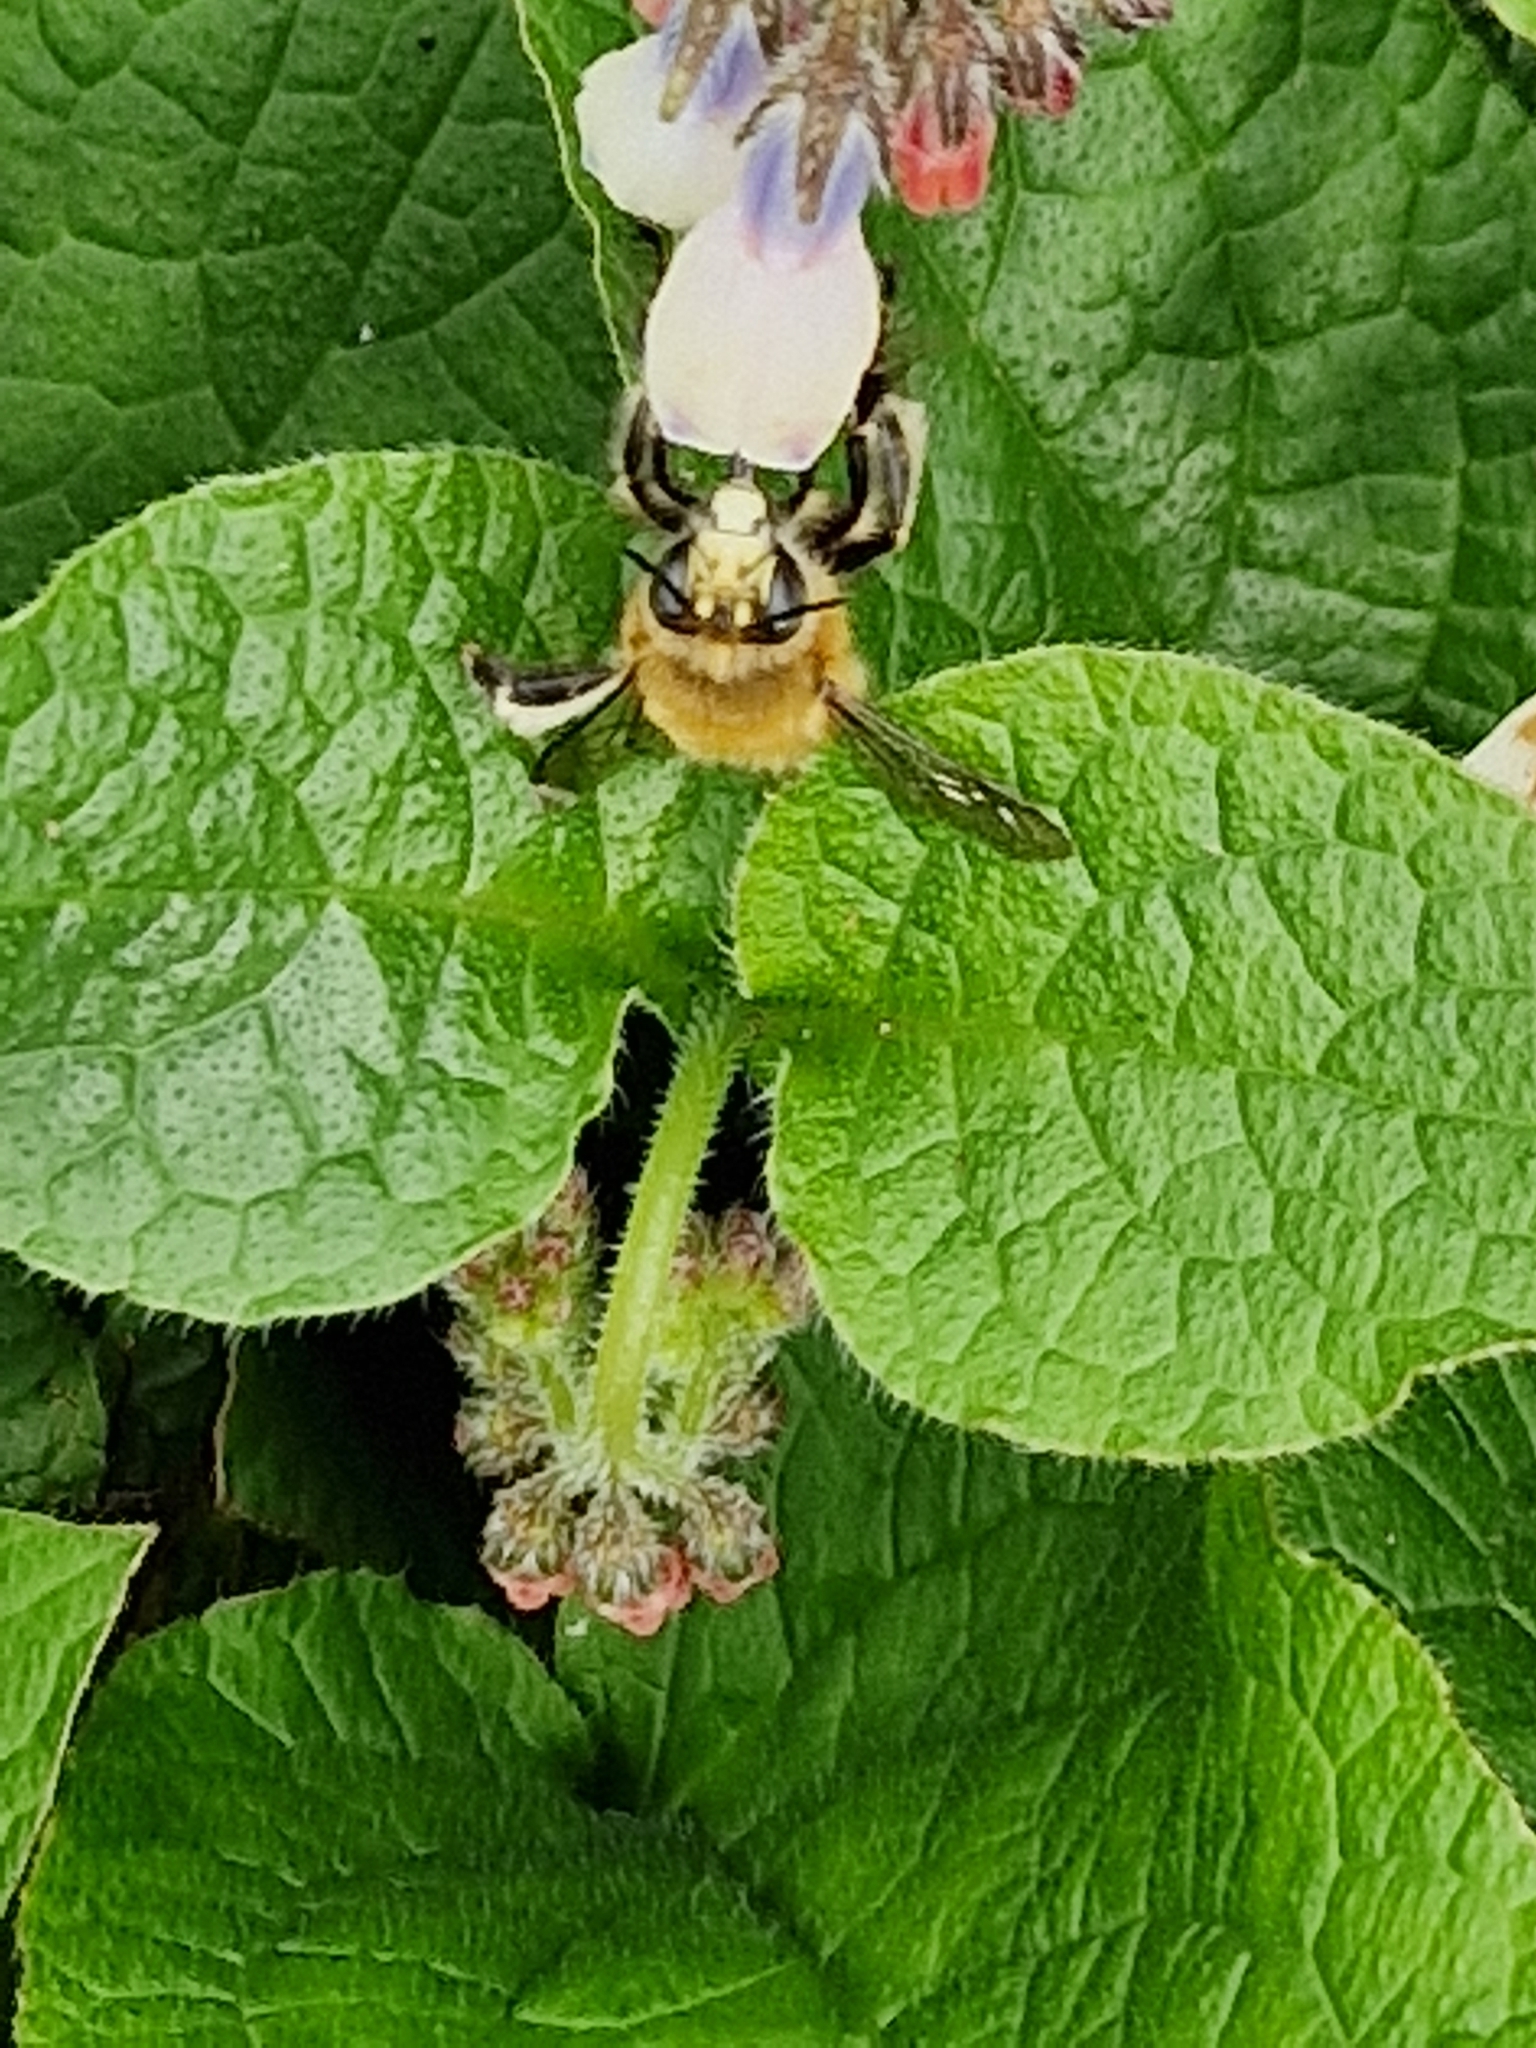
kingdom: Animalia
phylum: Arthropoda
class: Insecta
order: Hymenoptera
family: Apidae
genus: Anthophora
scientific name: Anthophora plumipes
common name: Hairy-footed flower bee
